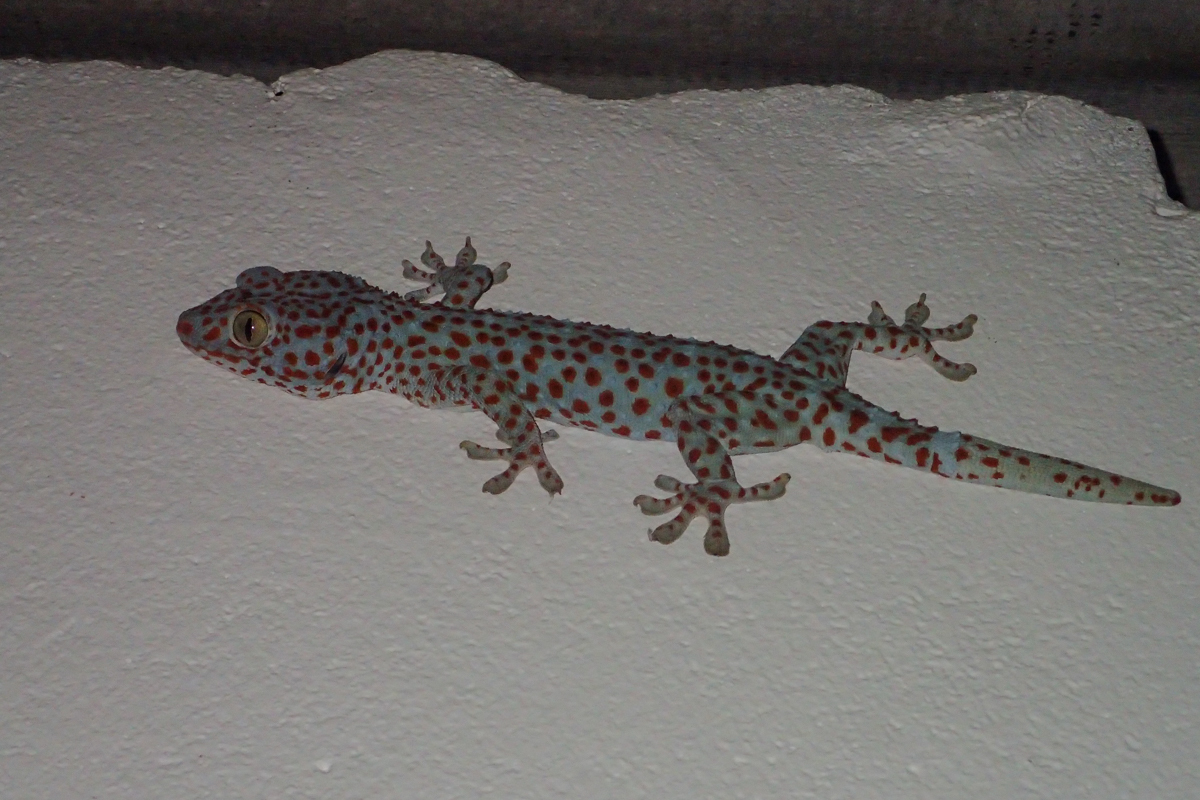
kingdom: Animalia
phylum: Chordata
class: Squamata
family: Gekkonidae
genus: Gekko
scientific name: Gekko gecko
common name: Tokay gecko
